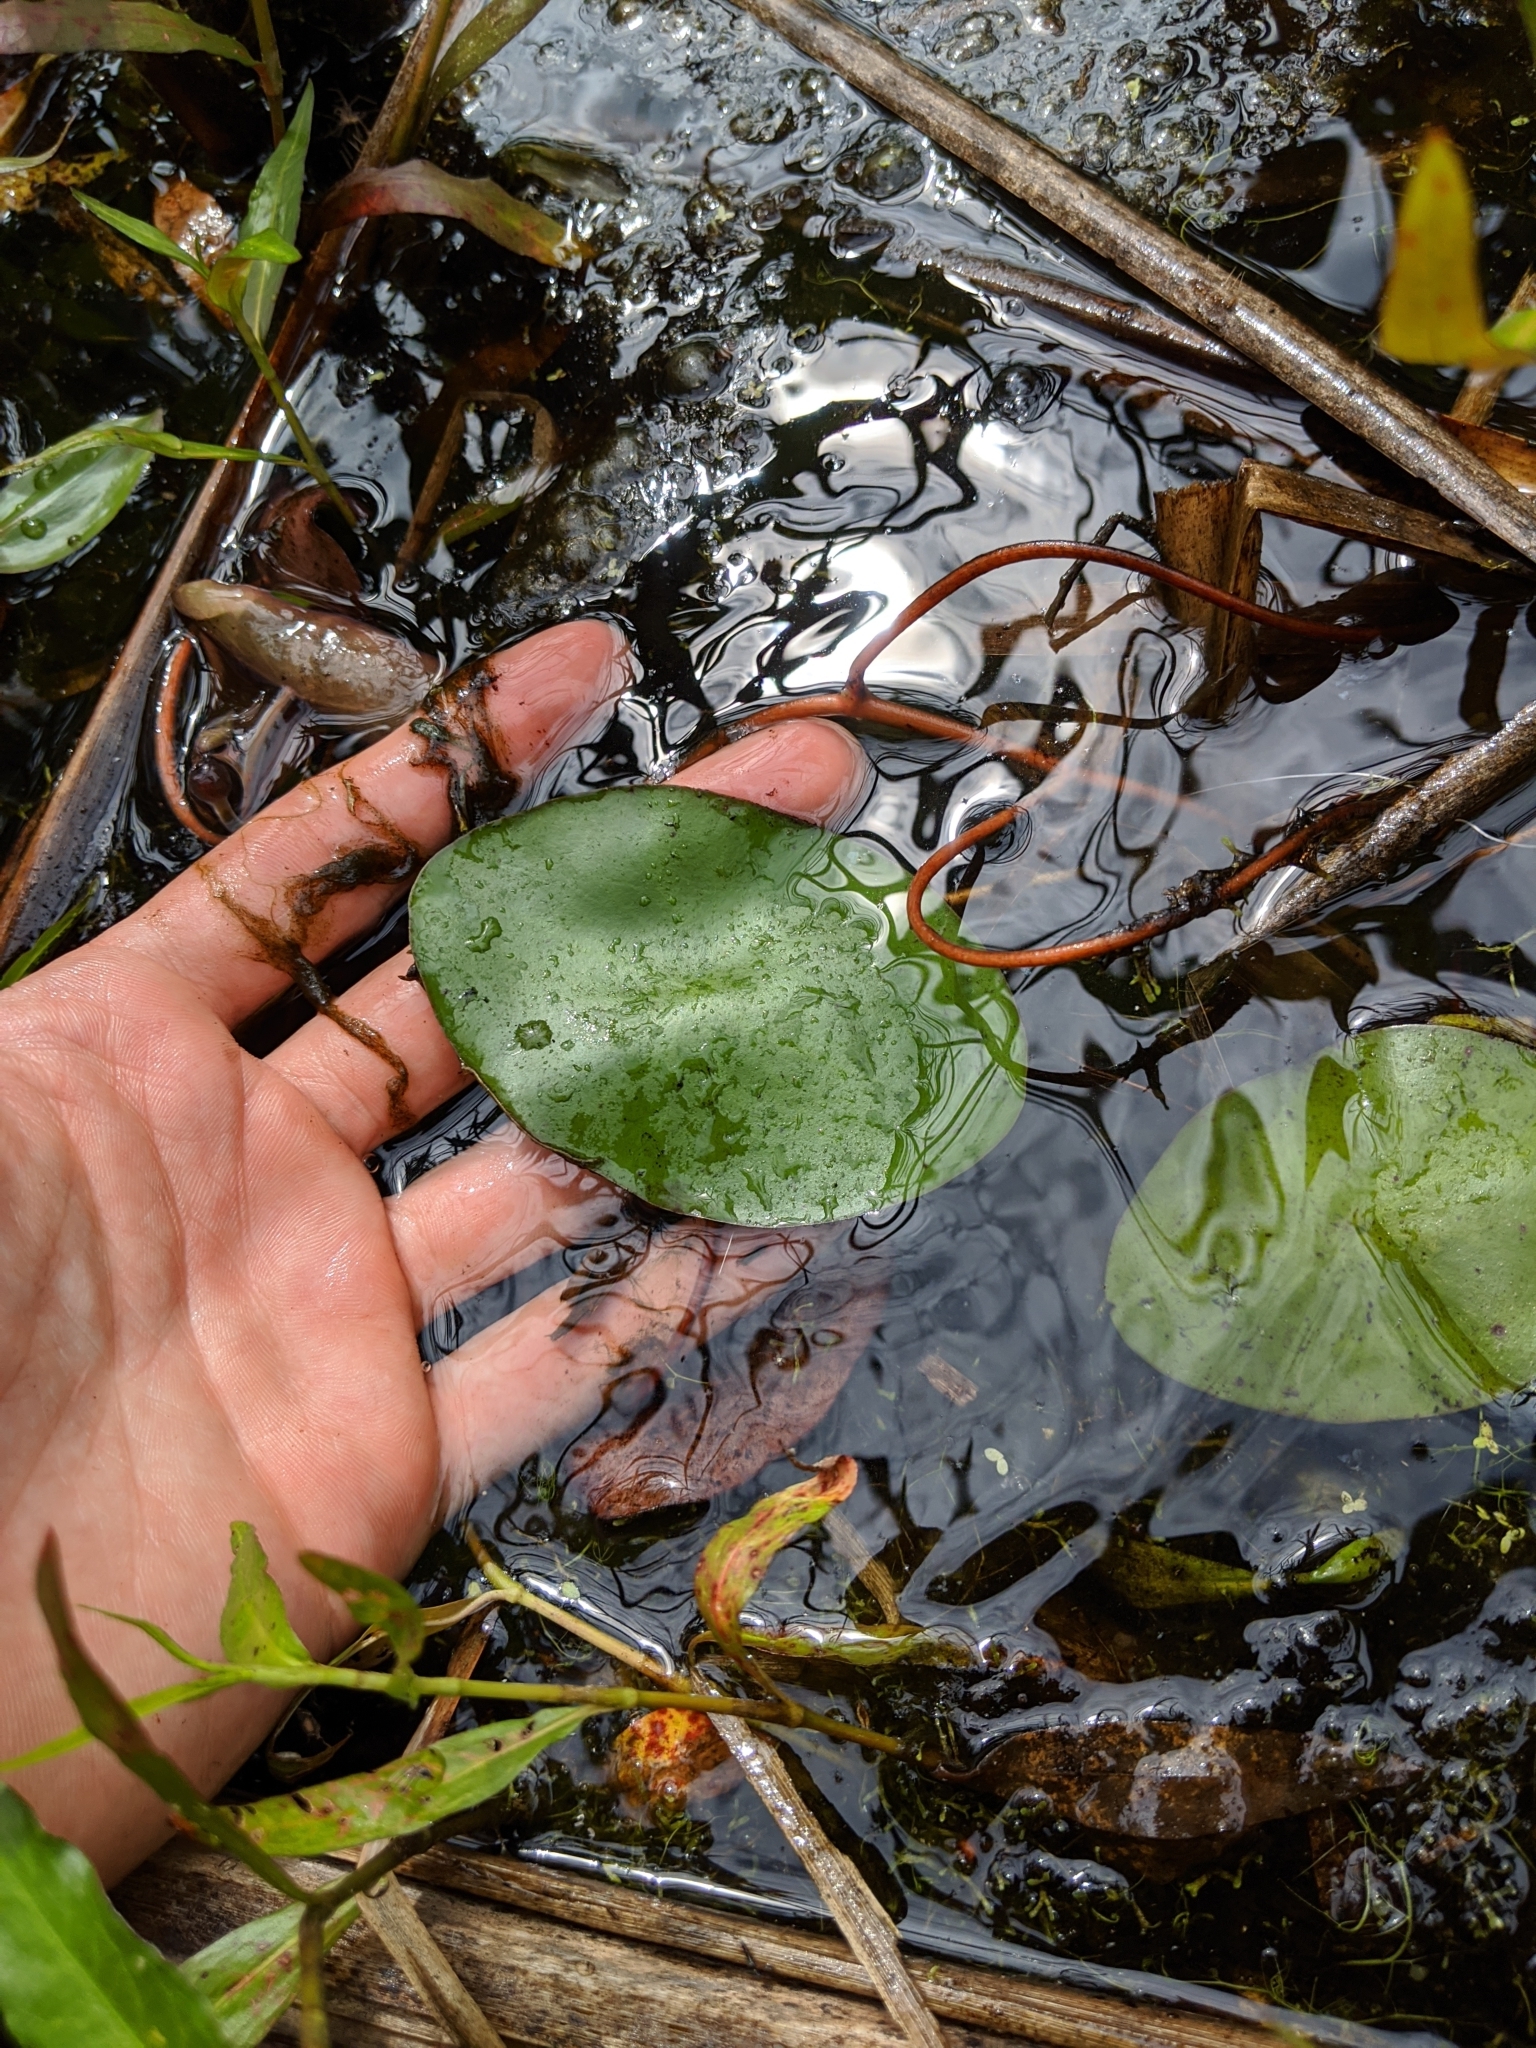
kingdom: Plantae
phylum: Tracheophyta
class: Magnoliopsida
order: Nymphaeales
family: Cabombaceae
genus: Brasenia
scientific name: Brasenia schreberi
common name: Water-shield
